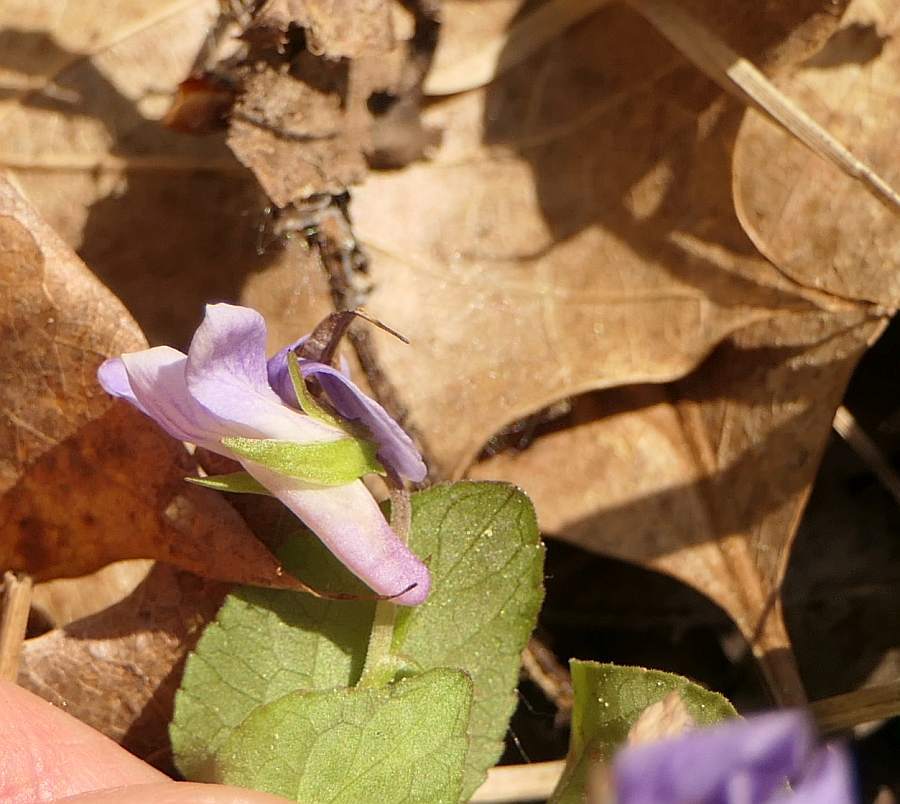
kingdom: Plantae
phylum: Tracheophyta
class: Magnoliopsida
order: Malpighiales
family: Violaceae
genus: Viola
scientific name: Viola labradorica
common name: Labrador violet
